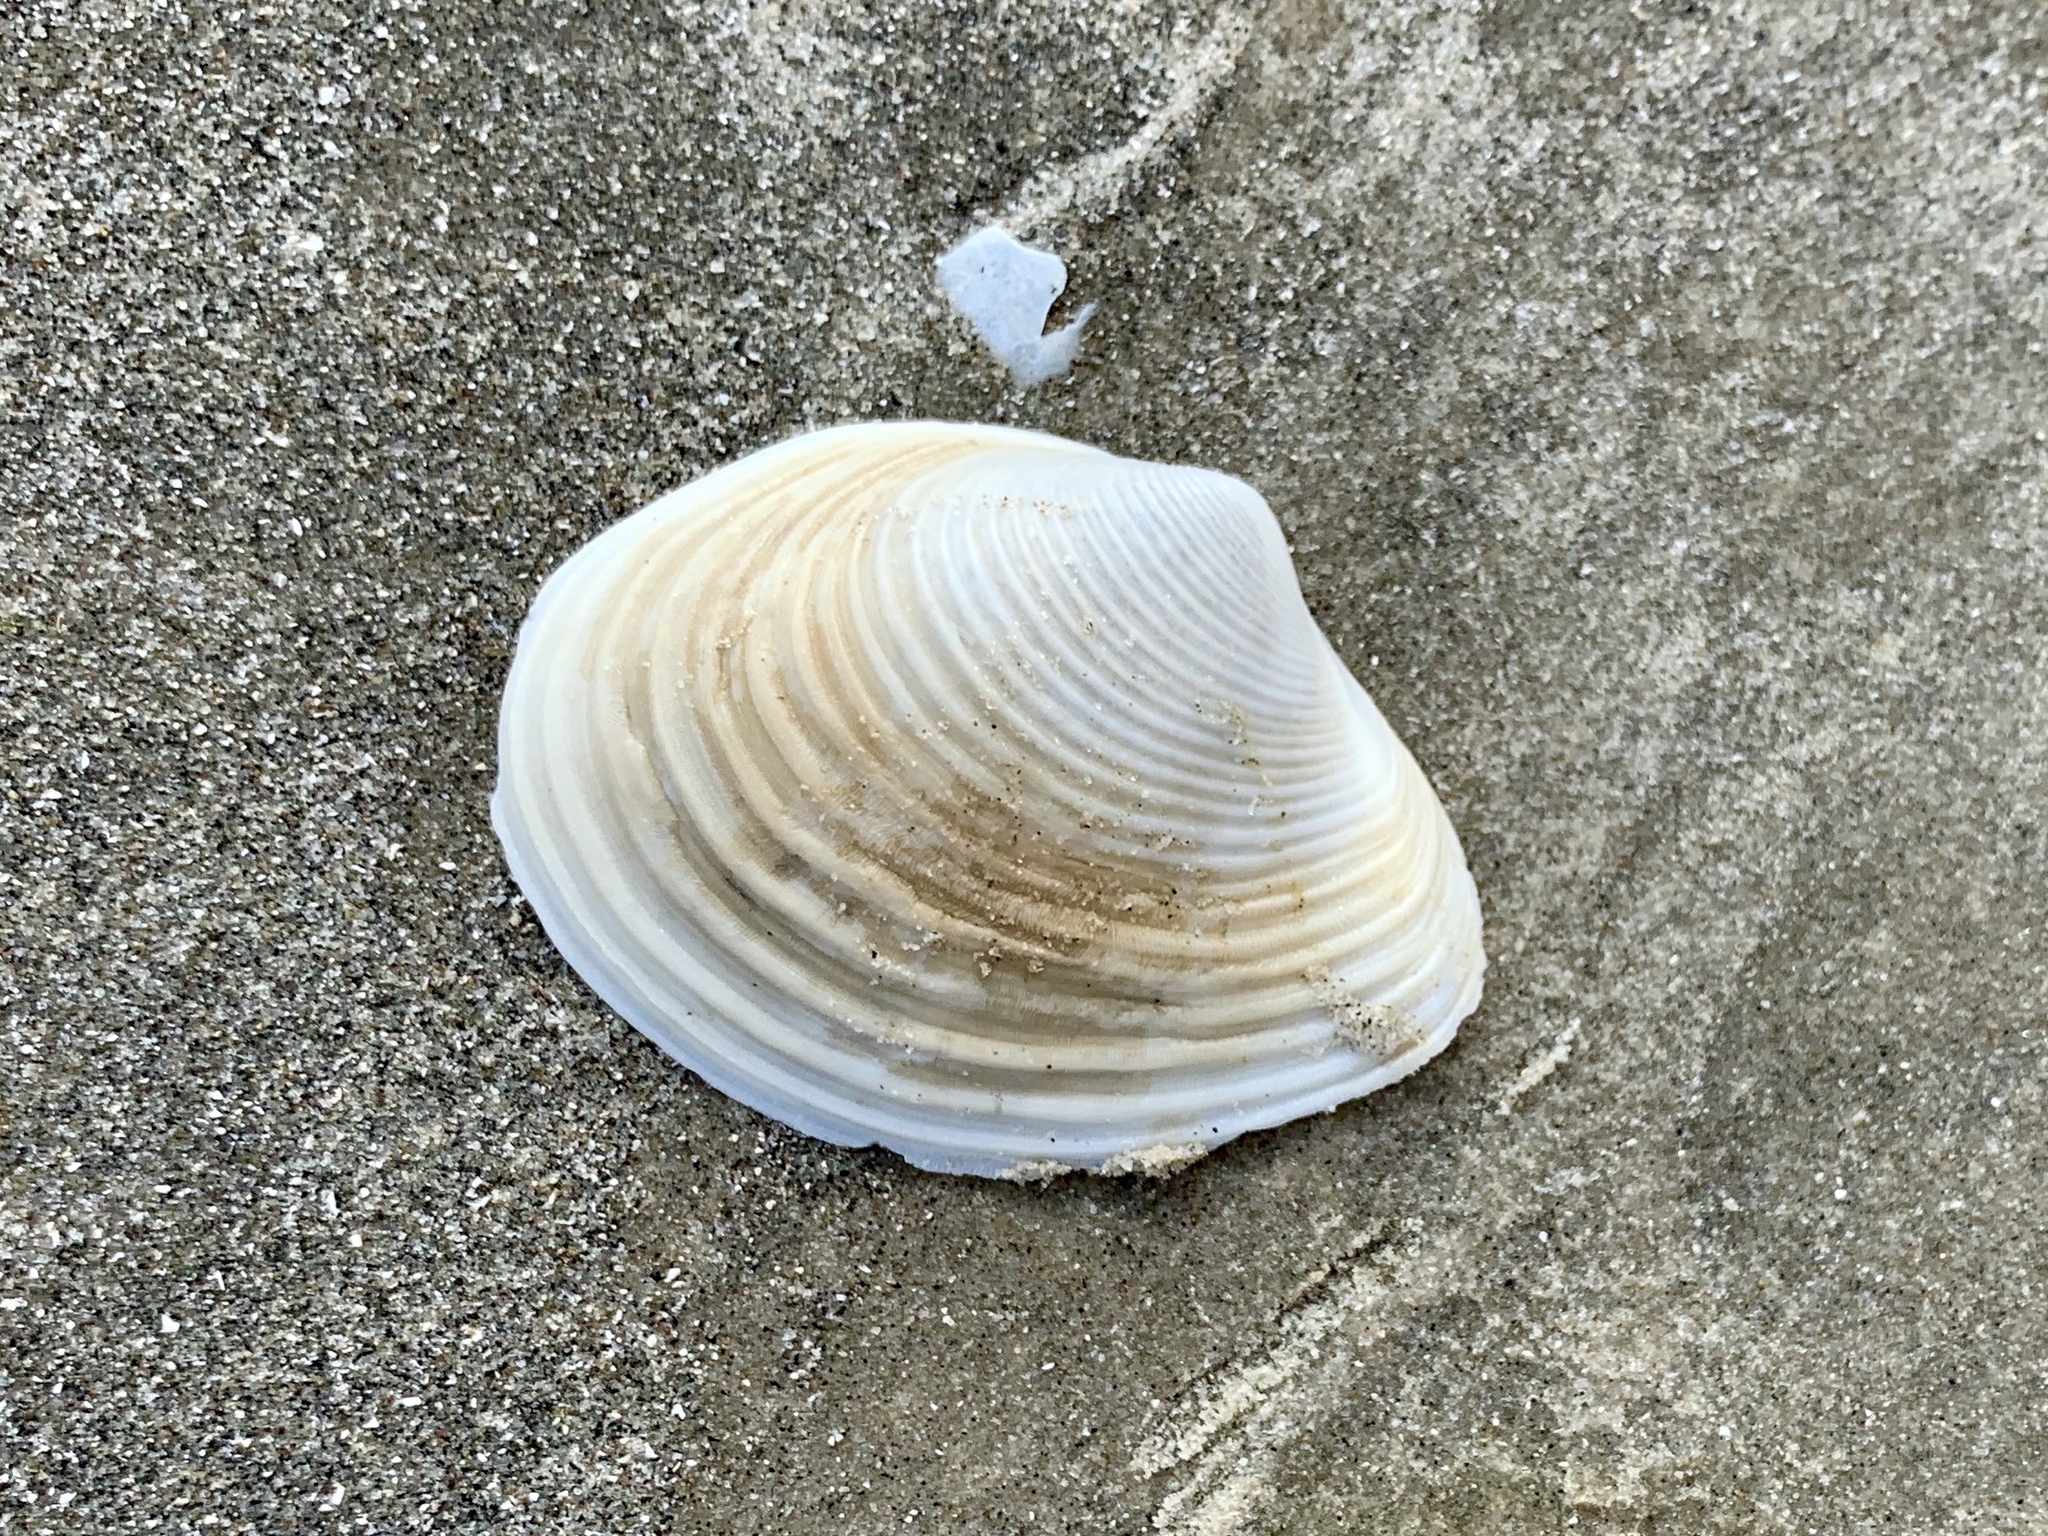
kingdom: Animalia
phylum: Mollusca
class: Bivalvia
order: Venerida
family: Anatinellidae
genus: Raeta
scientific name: Raeta plicatella
